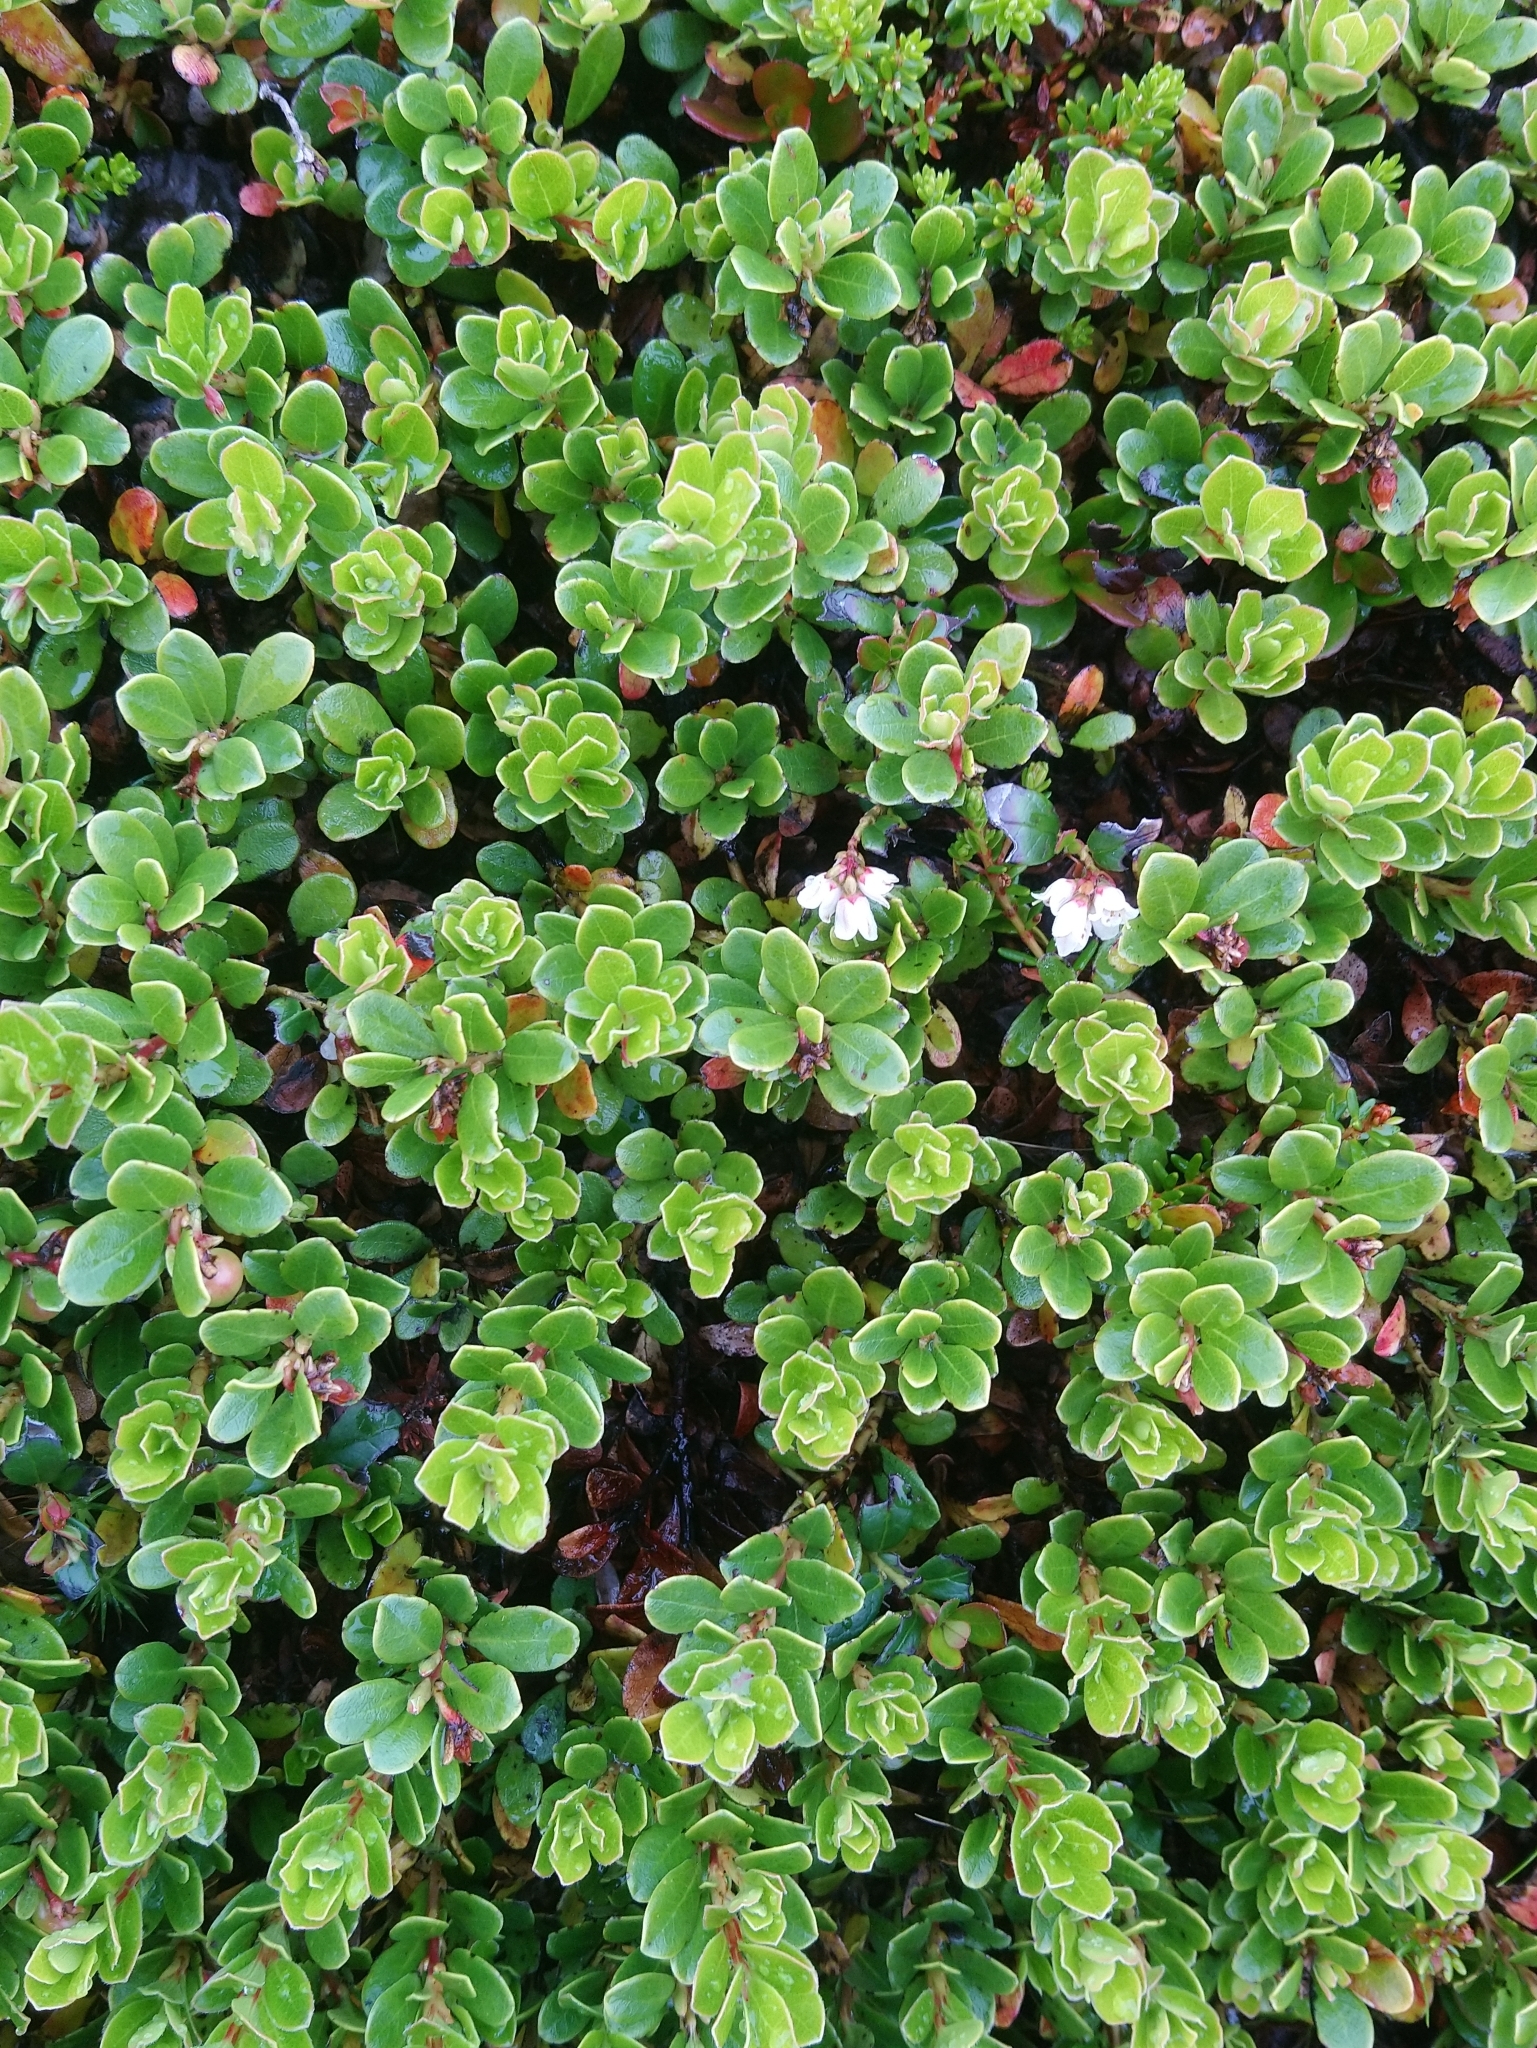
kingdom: Plantae
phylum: Tracheophyta
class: Magnoliopsida
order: Ericales
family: Ericaceae
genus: Arctostaphylos
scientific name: Arctostaphylos uva-ursi
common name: Bearberry
